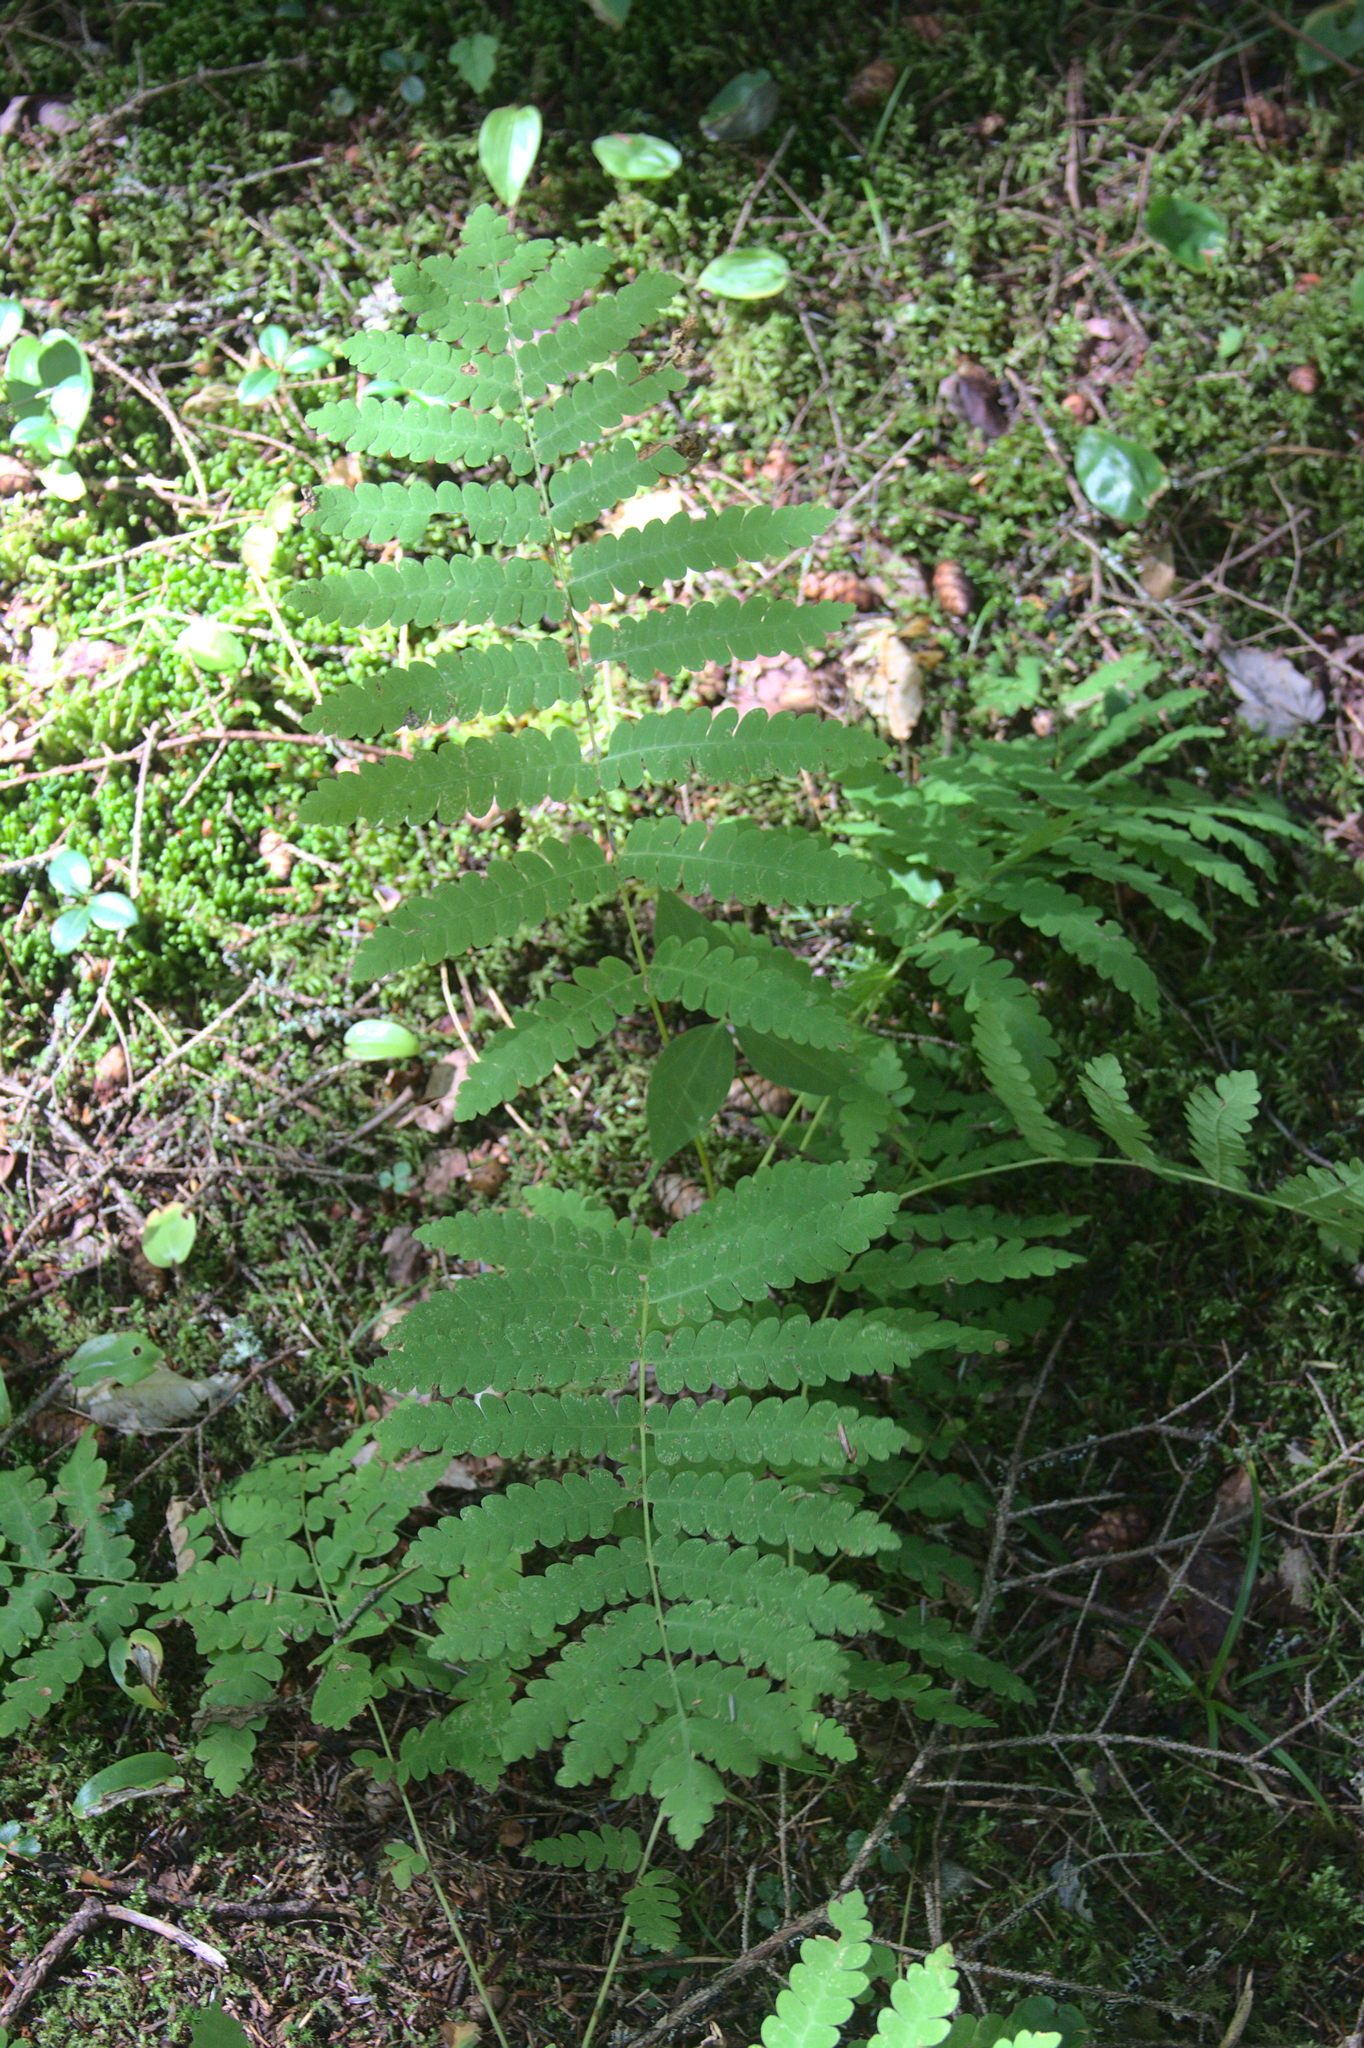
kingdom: Plantae
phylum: Tracheophyta
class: Polypodiopsida
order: Osmundales
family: Osmundaceae
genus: Claytosmunda
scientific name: Claytosmunda claytoniana
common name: Clayton's fern
